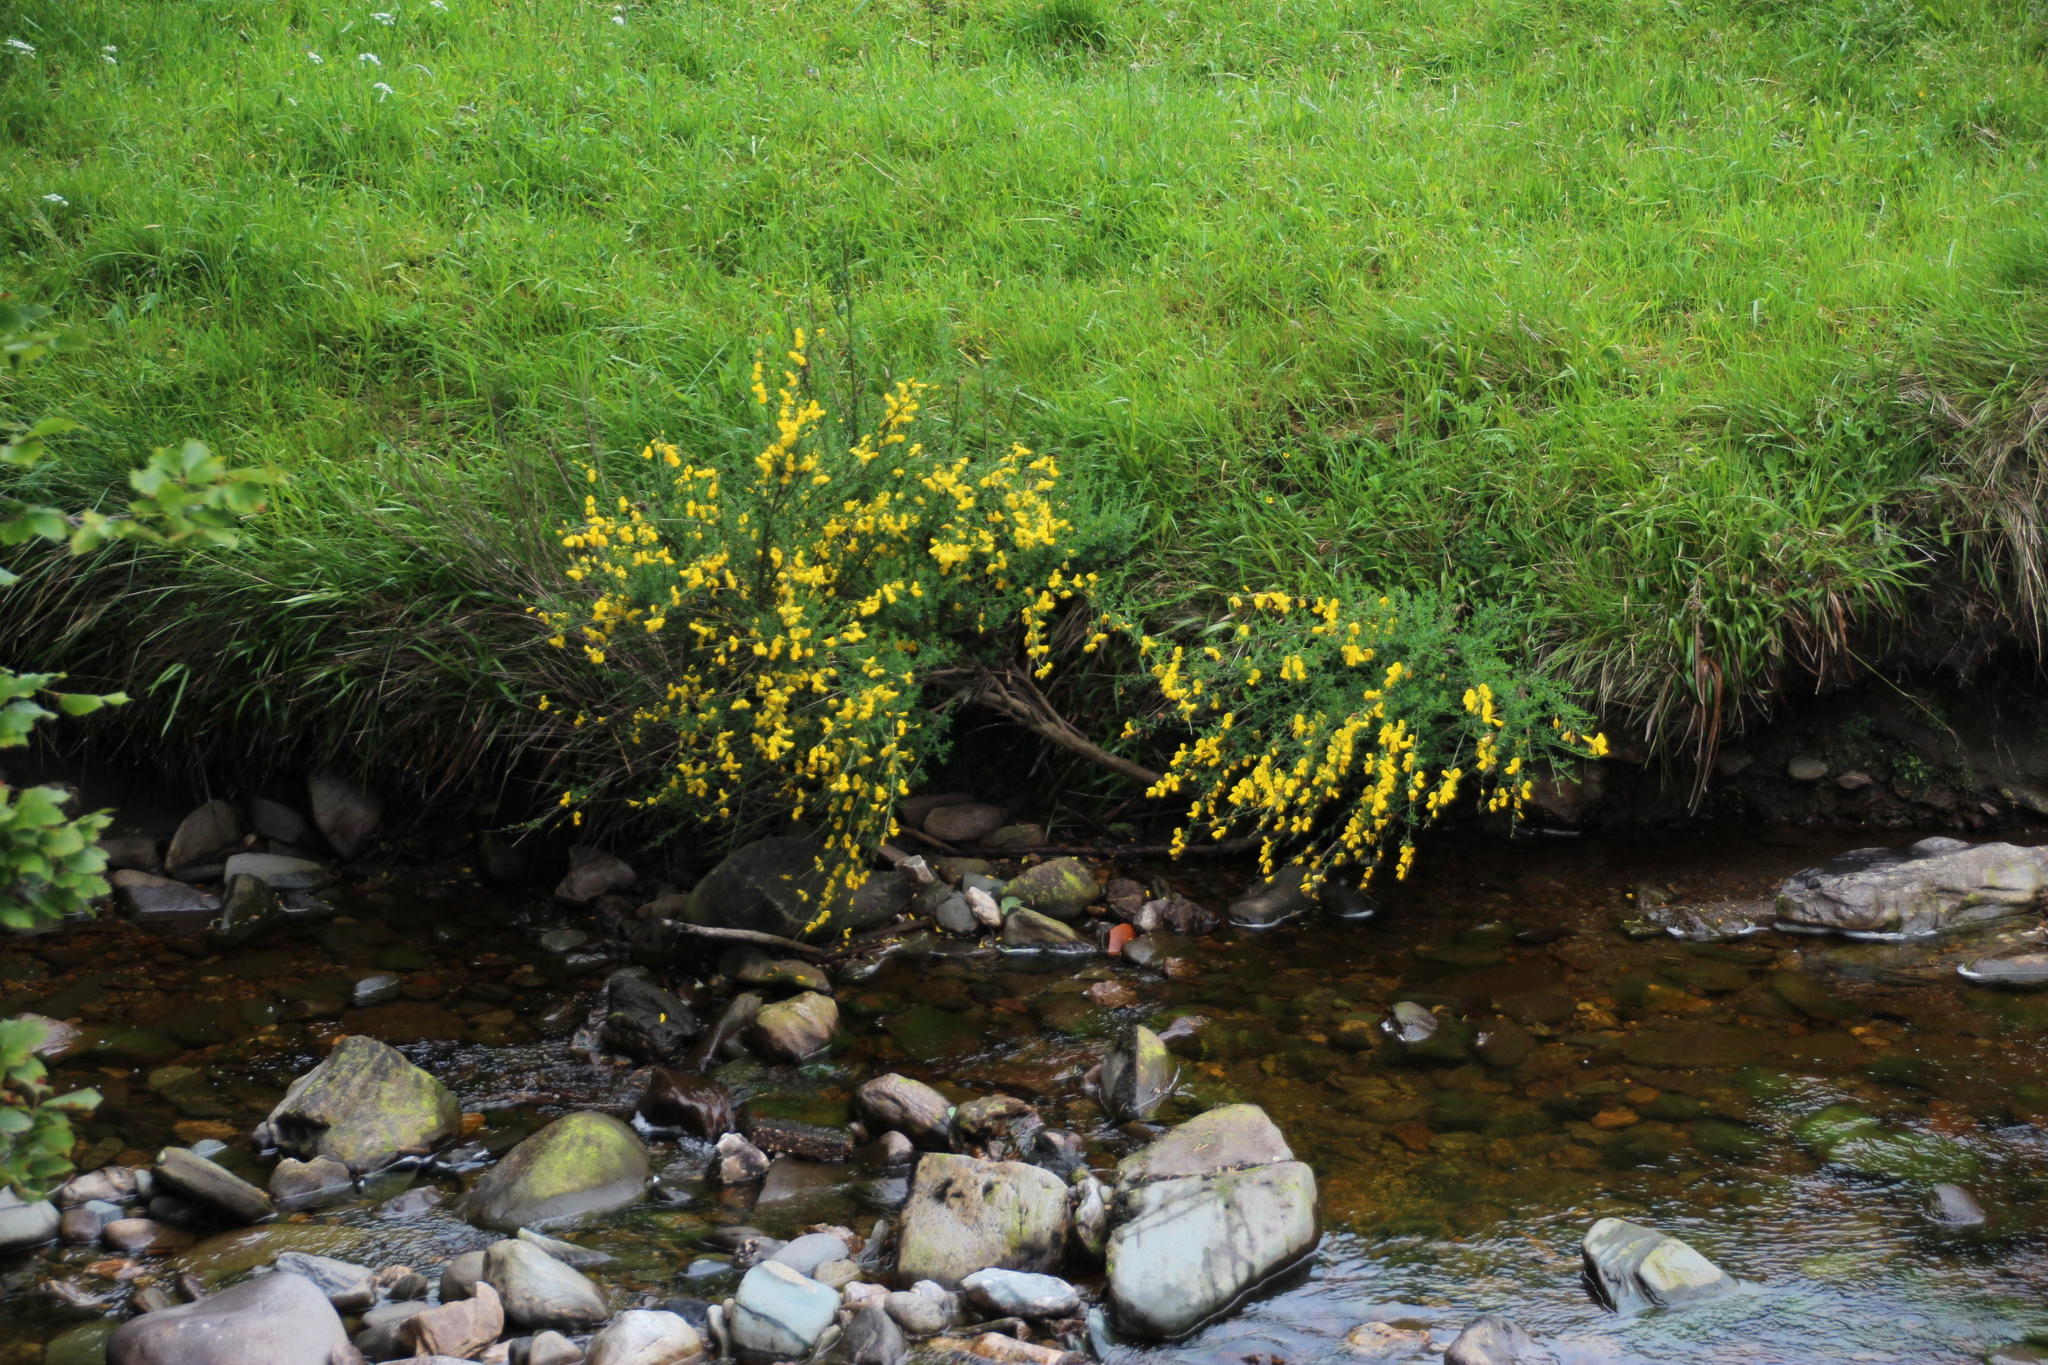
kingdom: Plantae
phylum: Tracheophyta
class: Magnoliopsida
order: Fabales
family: Fabaceae
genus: Cytisus
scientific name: Cytisus scoparius
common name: Scotch broom
